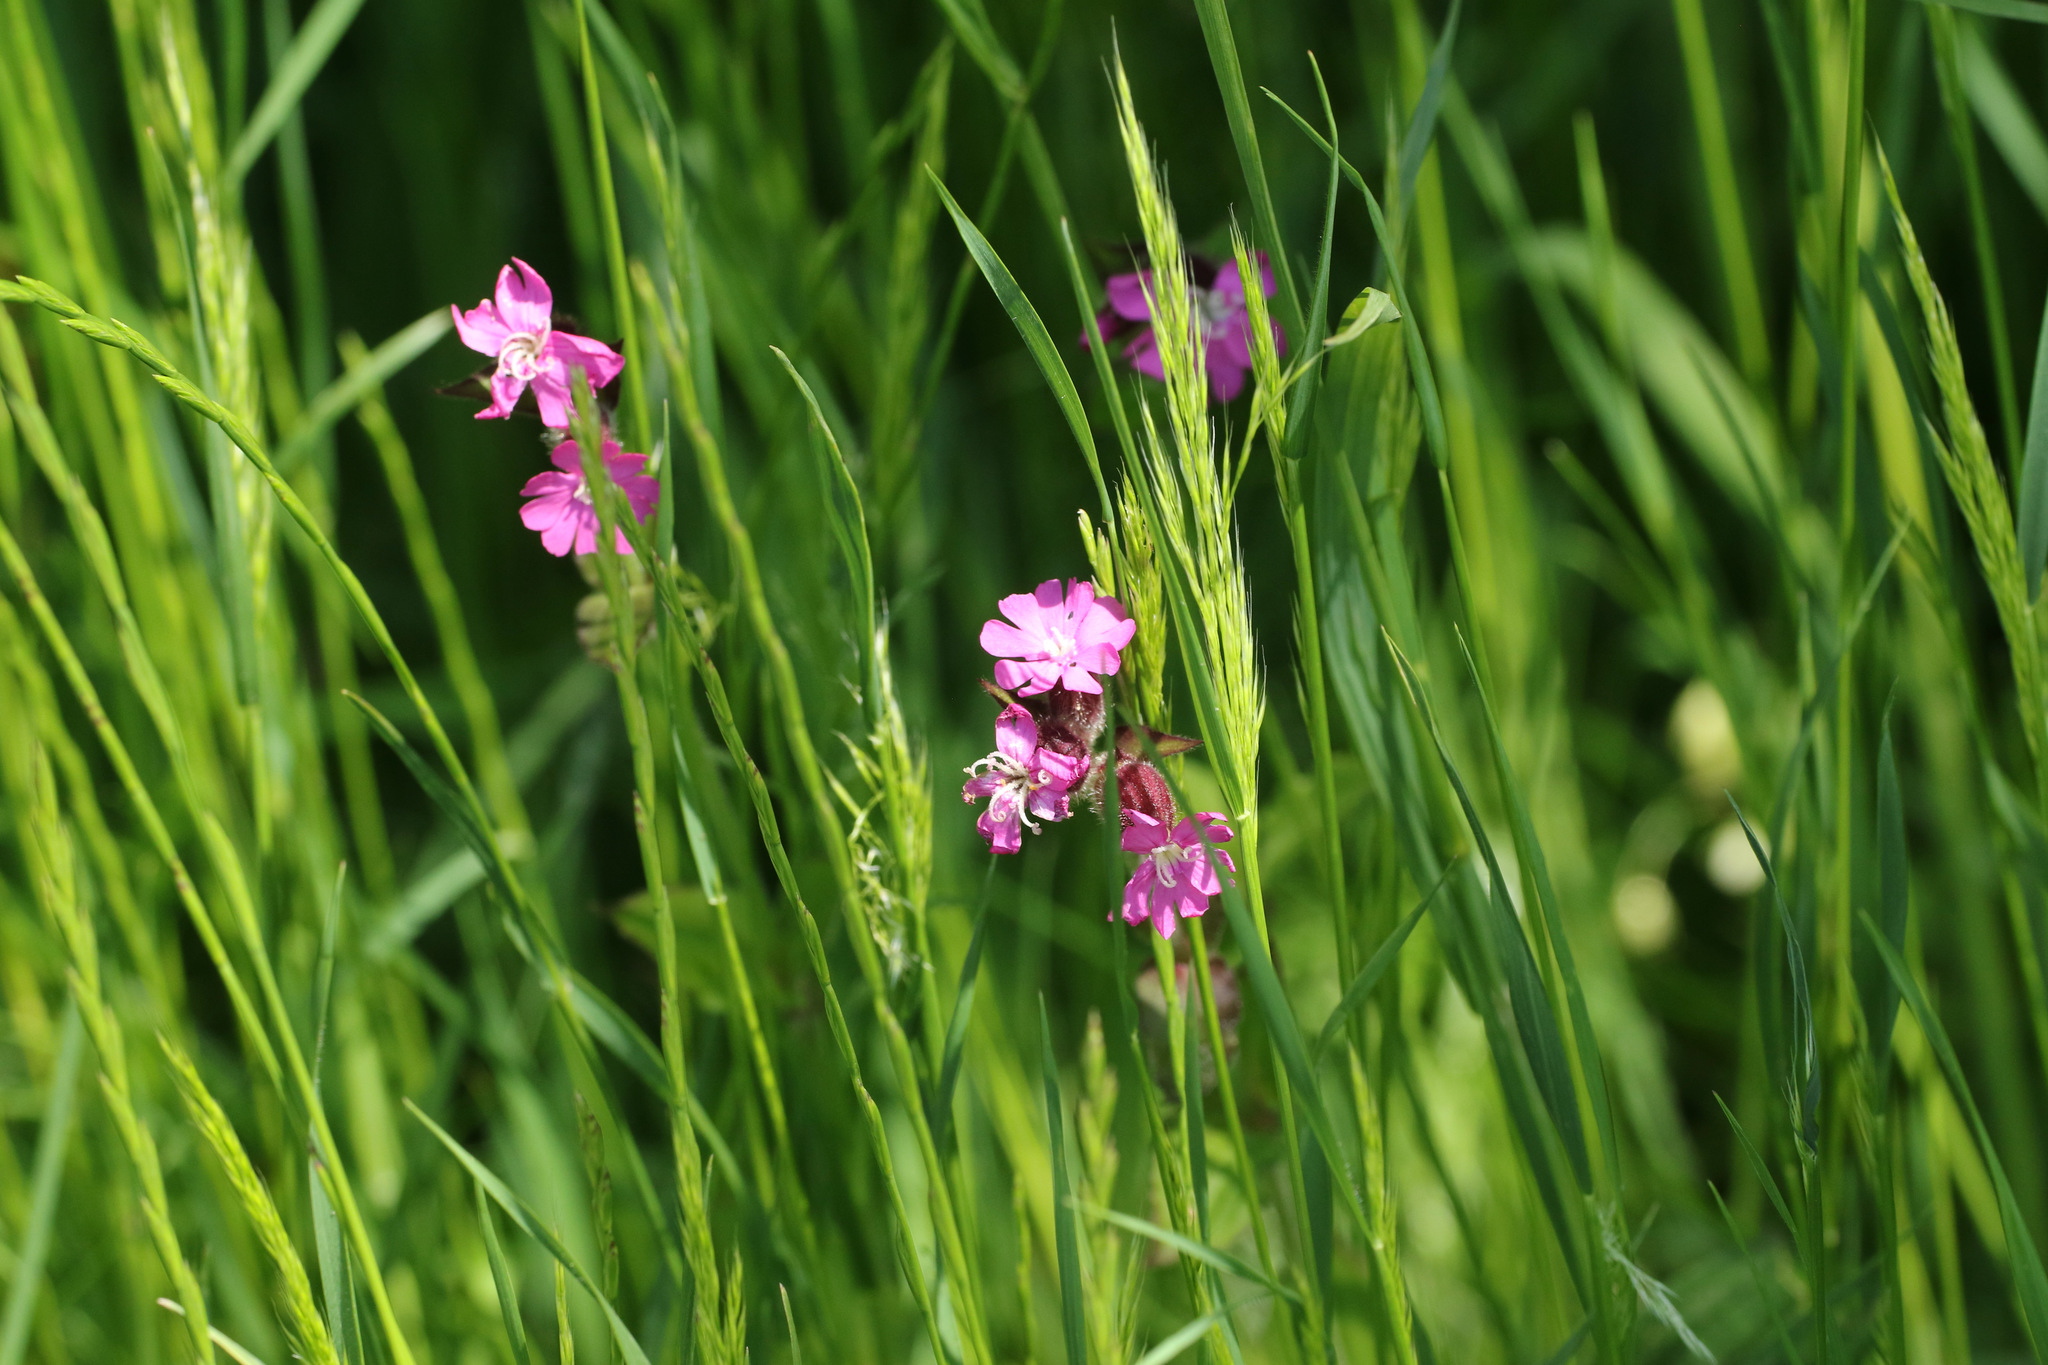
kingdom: Plantae
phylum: Tracheophyta
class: Magnoliopsida
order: Caryophyllales
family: Caryophyllaceae
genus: Silene
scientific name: Silene dioica
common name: Red campion
